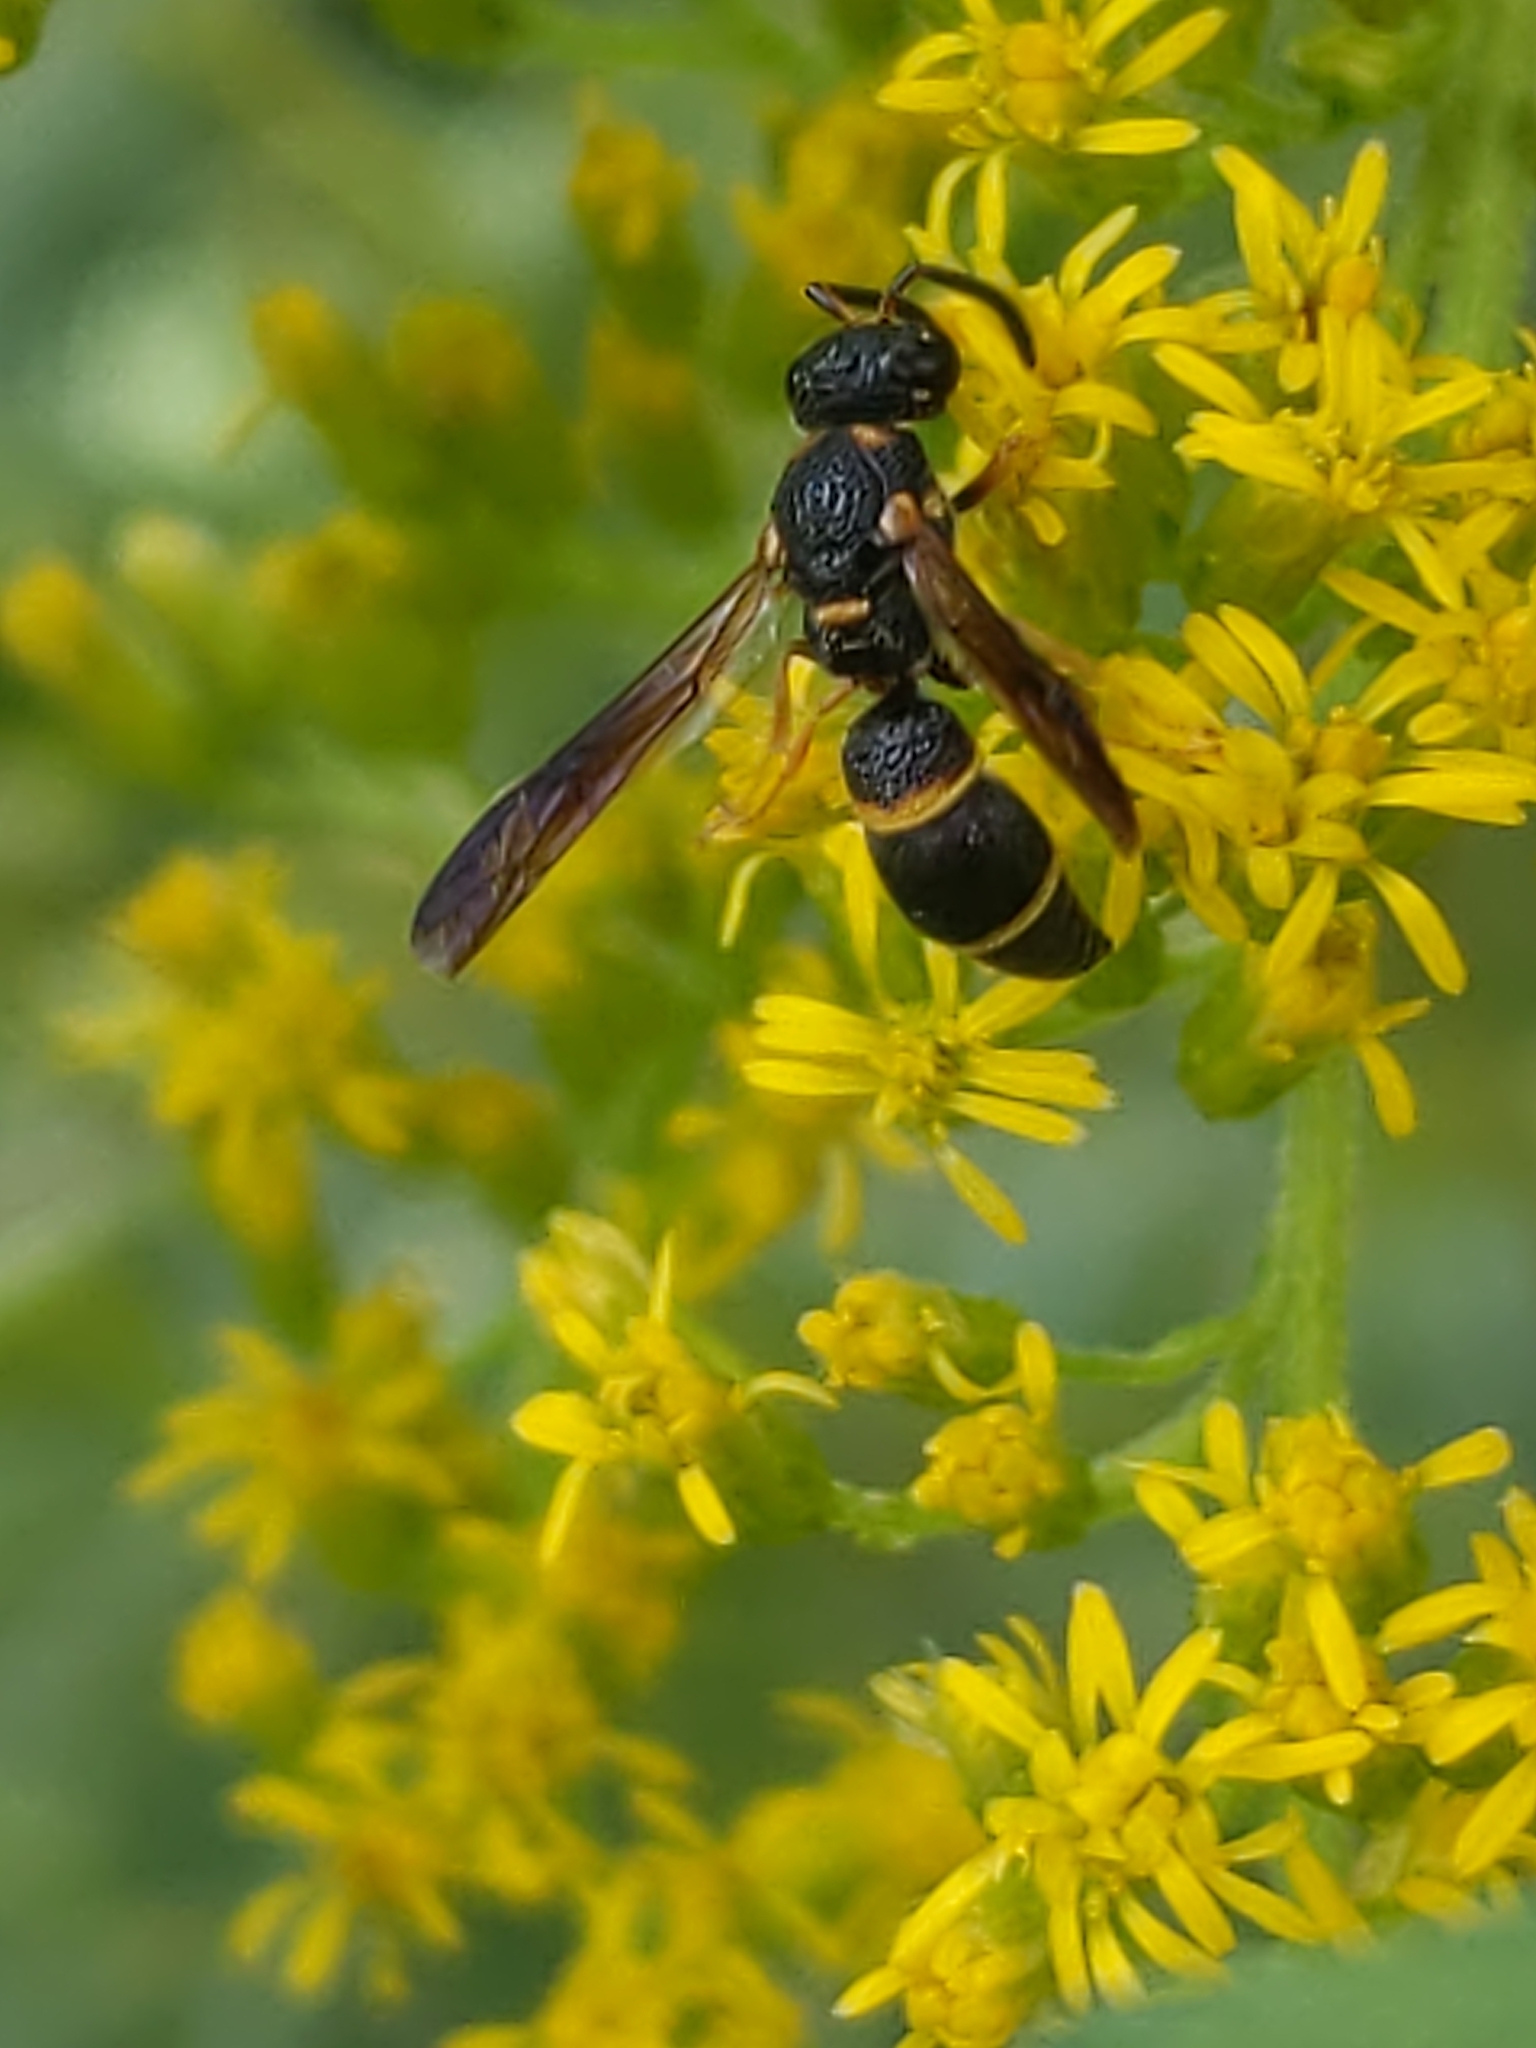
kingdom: Animalia
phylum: Arthropoda
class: Insecta
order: Hymenoptera
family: Eumenidae
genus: Parancistrocerus
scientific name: Parancistrocerus perennis
